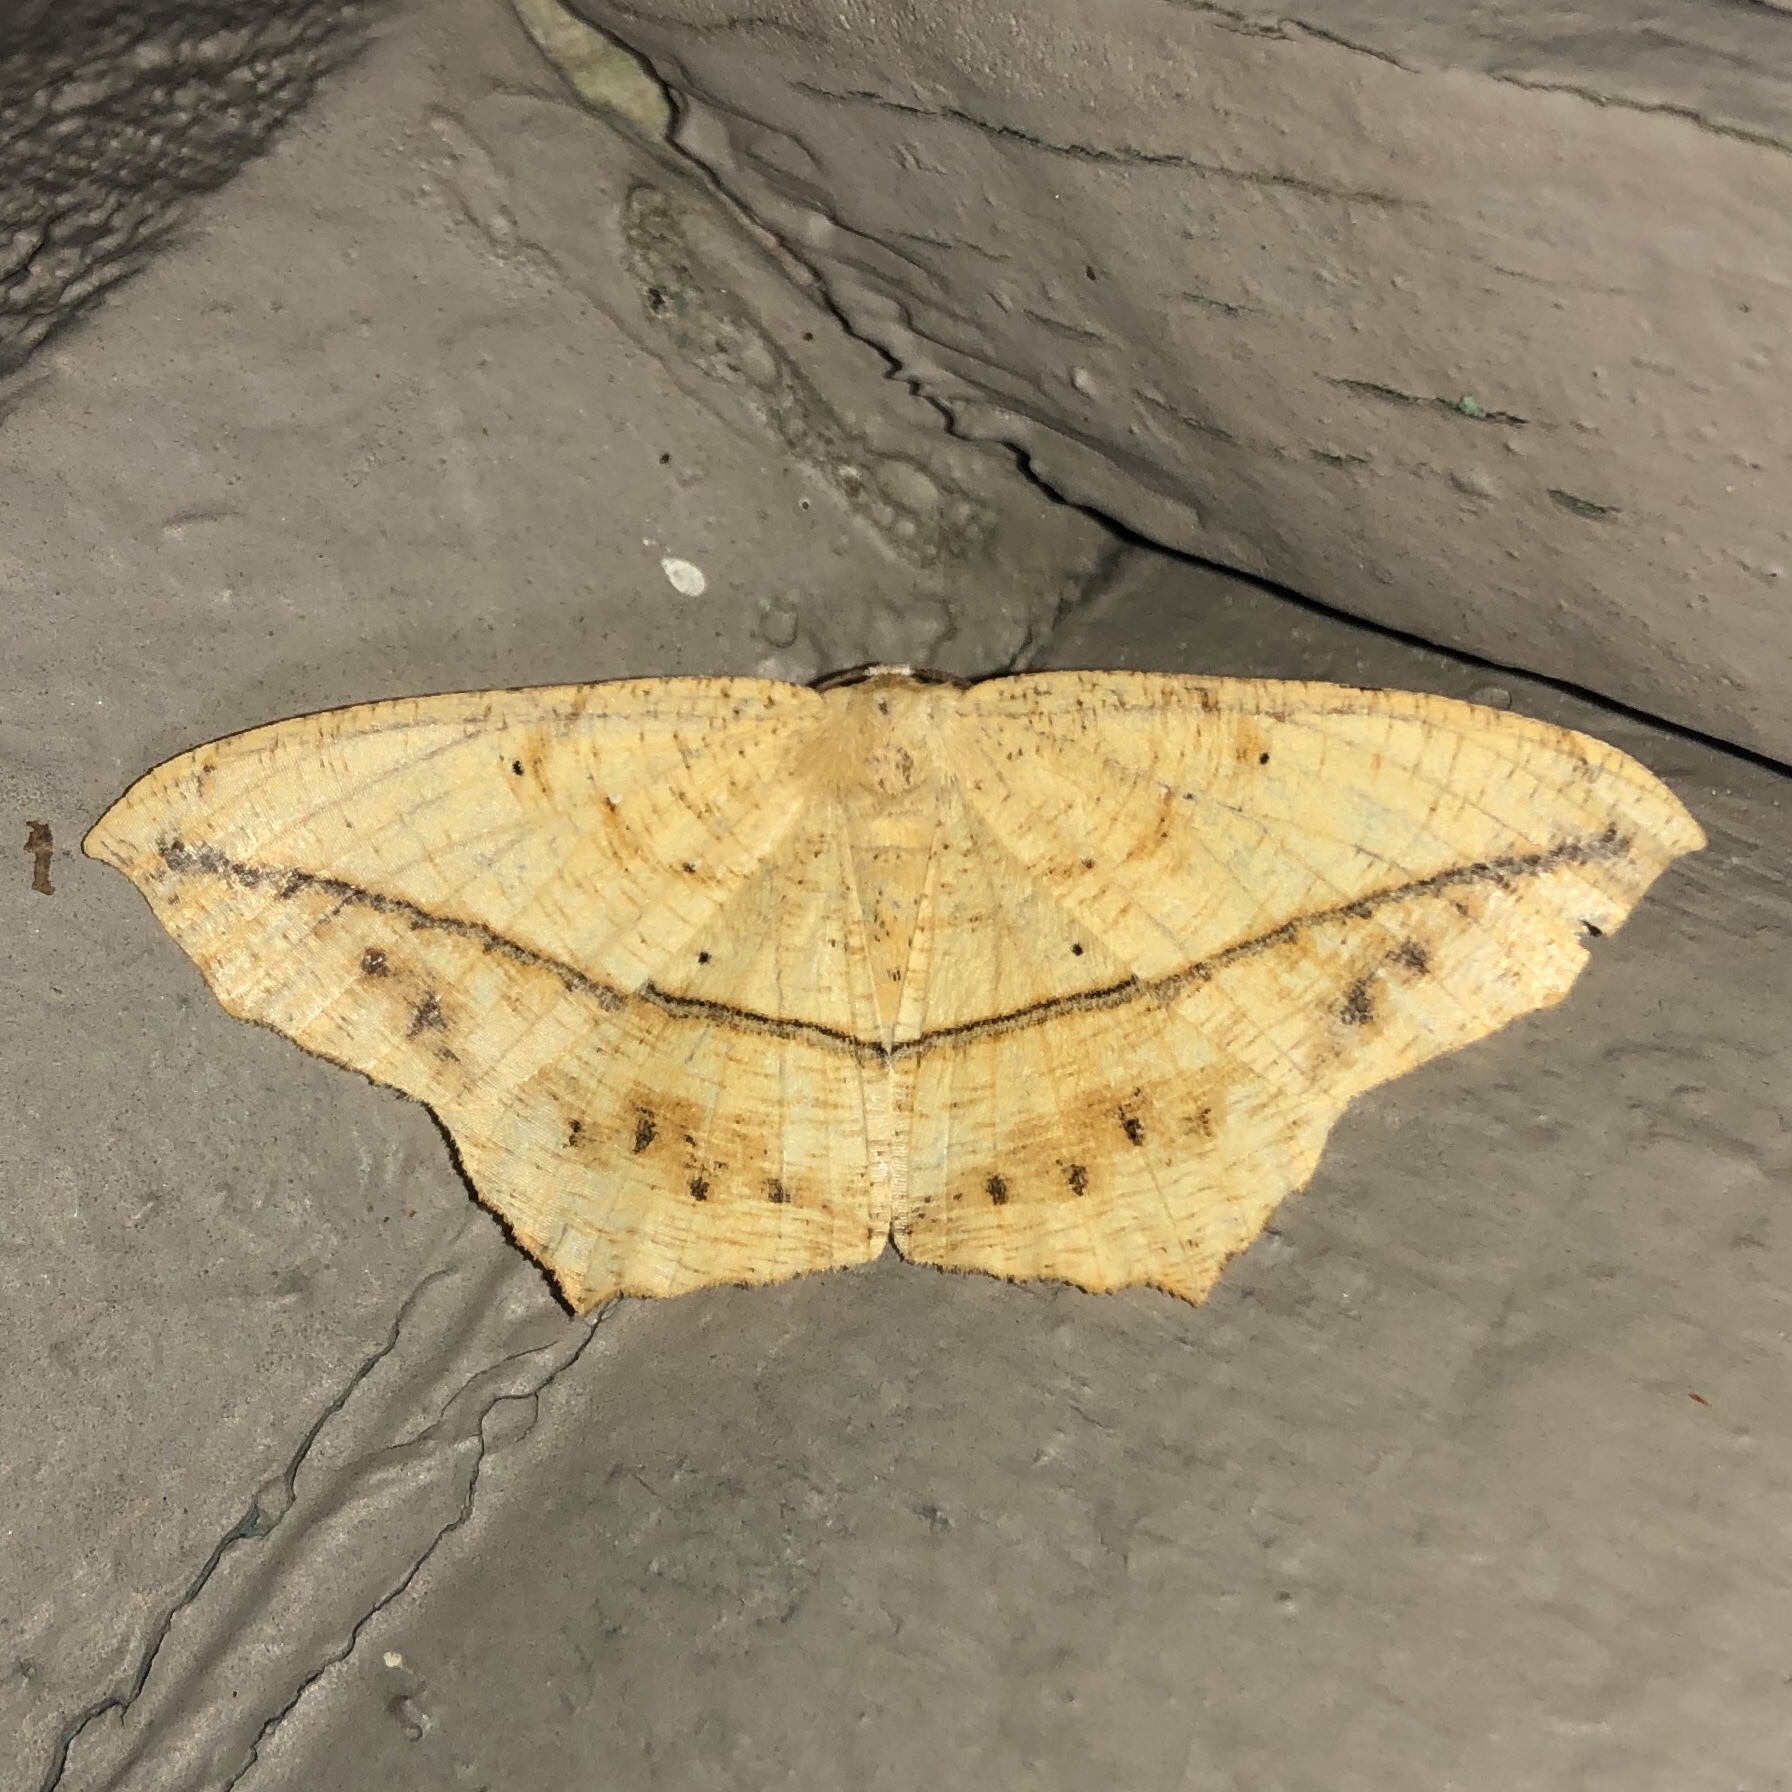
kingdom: Animalia
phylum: Arthropoda
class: Insecta
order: Lepidoptera
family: Geometridae
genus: Prochoerodes
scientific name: Prochoerodes lineola
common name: Large maple spanworm
